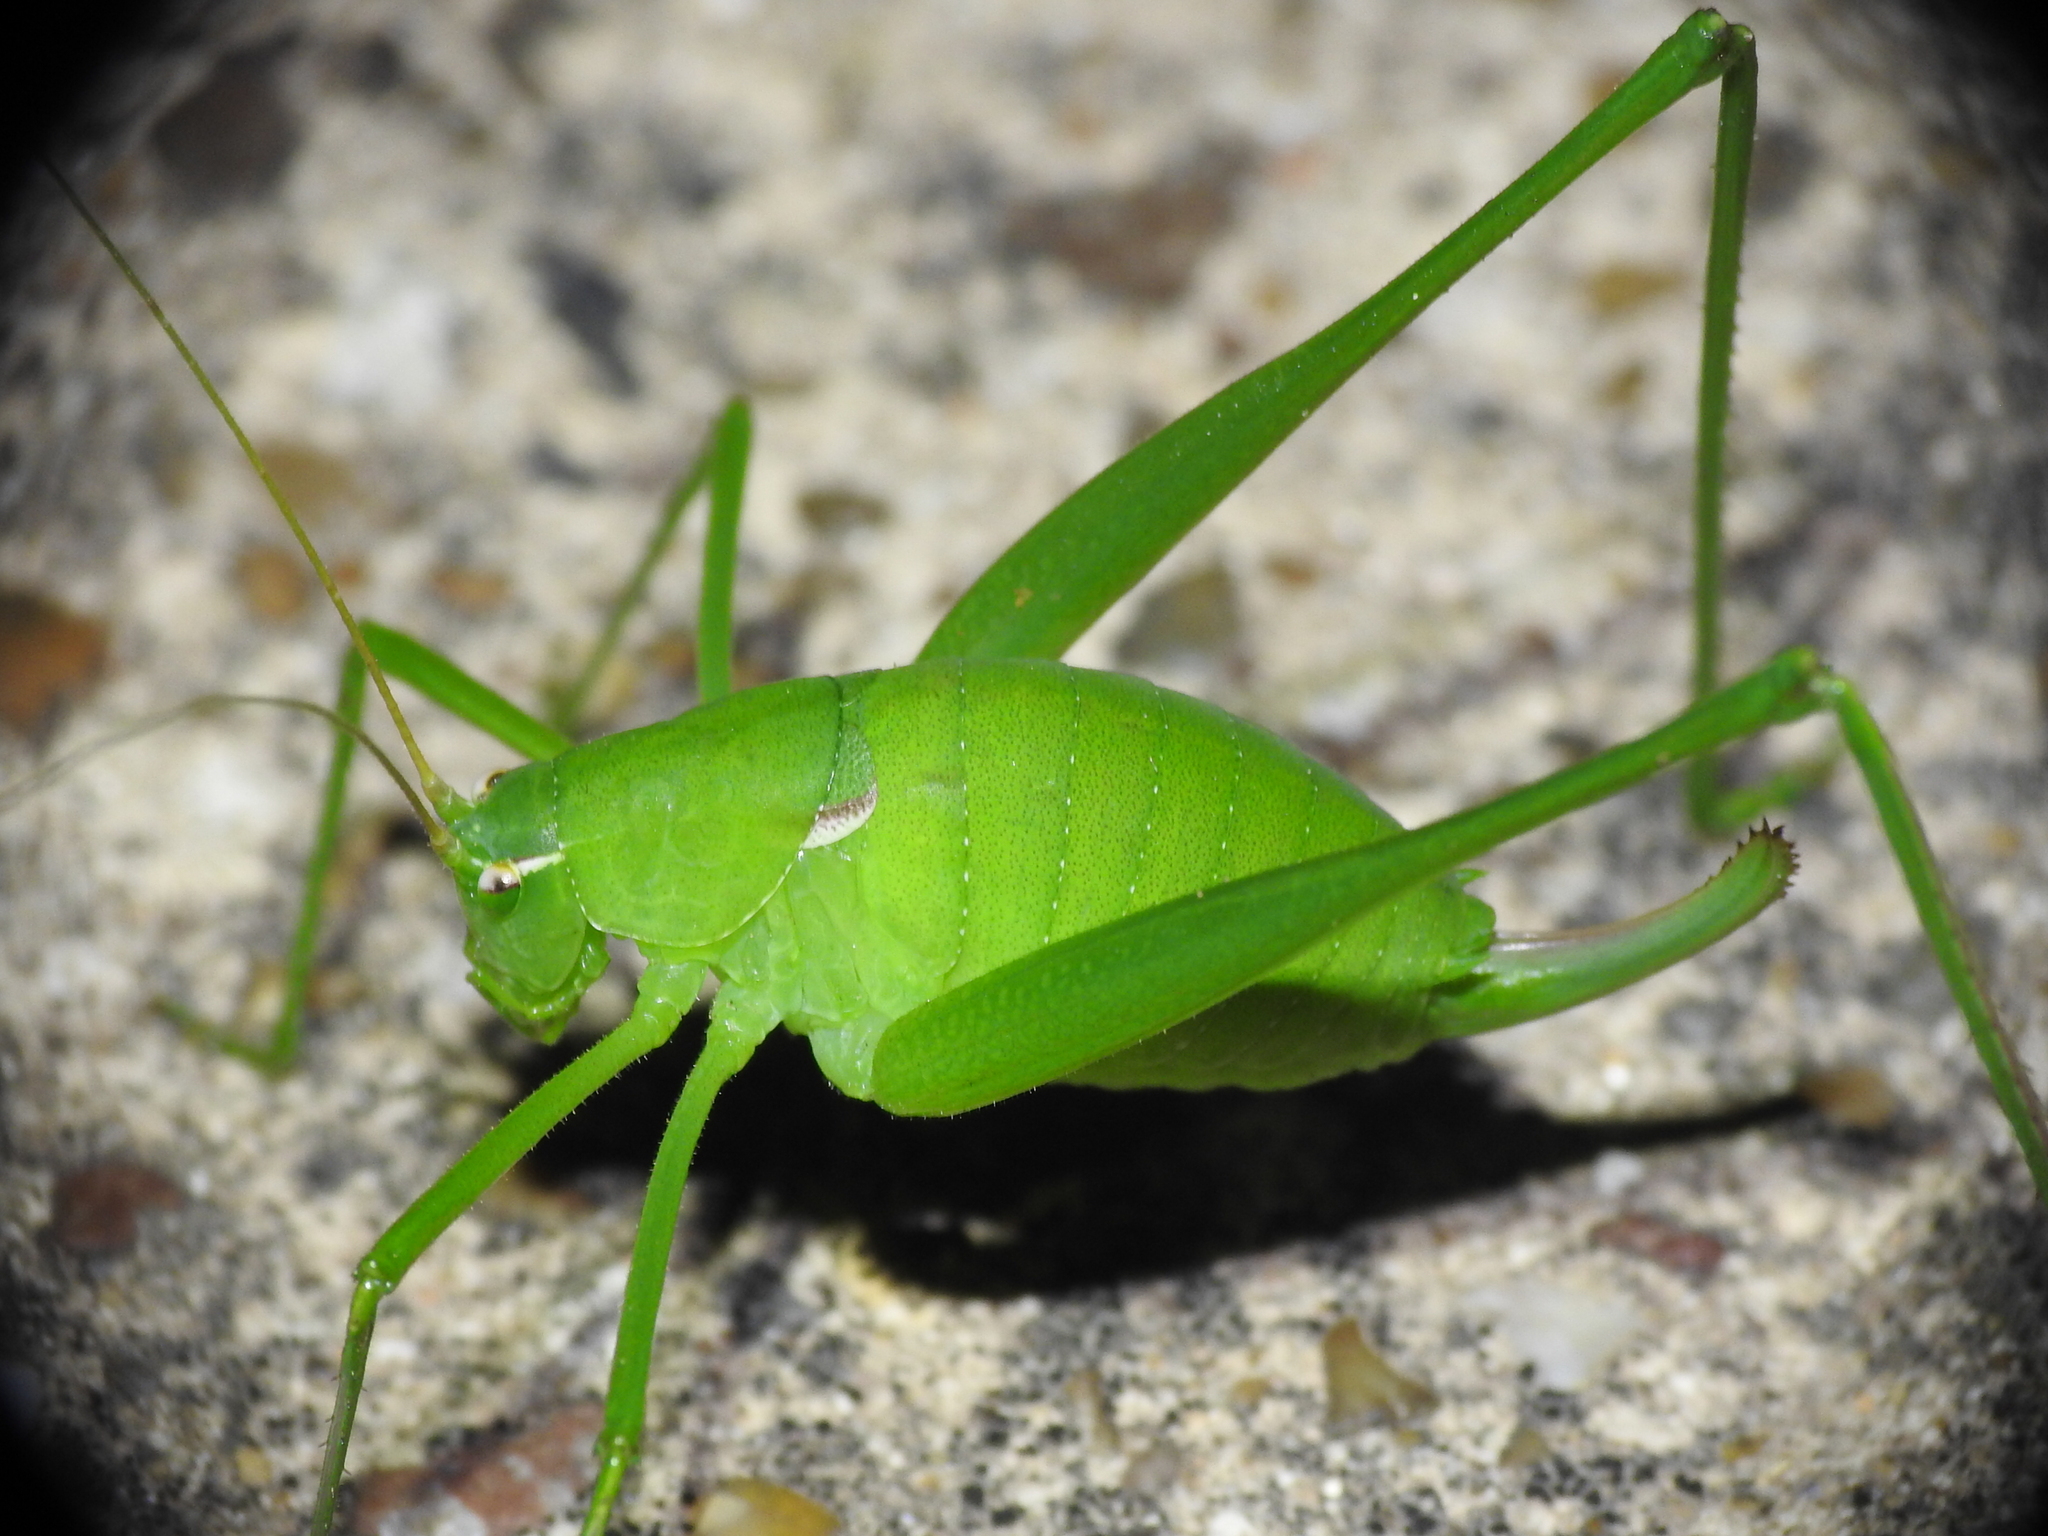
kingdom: Animalia
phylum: Arthropoda
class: Insecta
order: Orthoptera
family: Tettigoniidae
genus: Planipollex
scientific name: Planipollex pollicifer
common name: Thumb-bearing short-winged katydid
